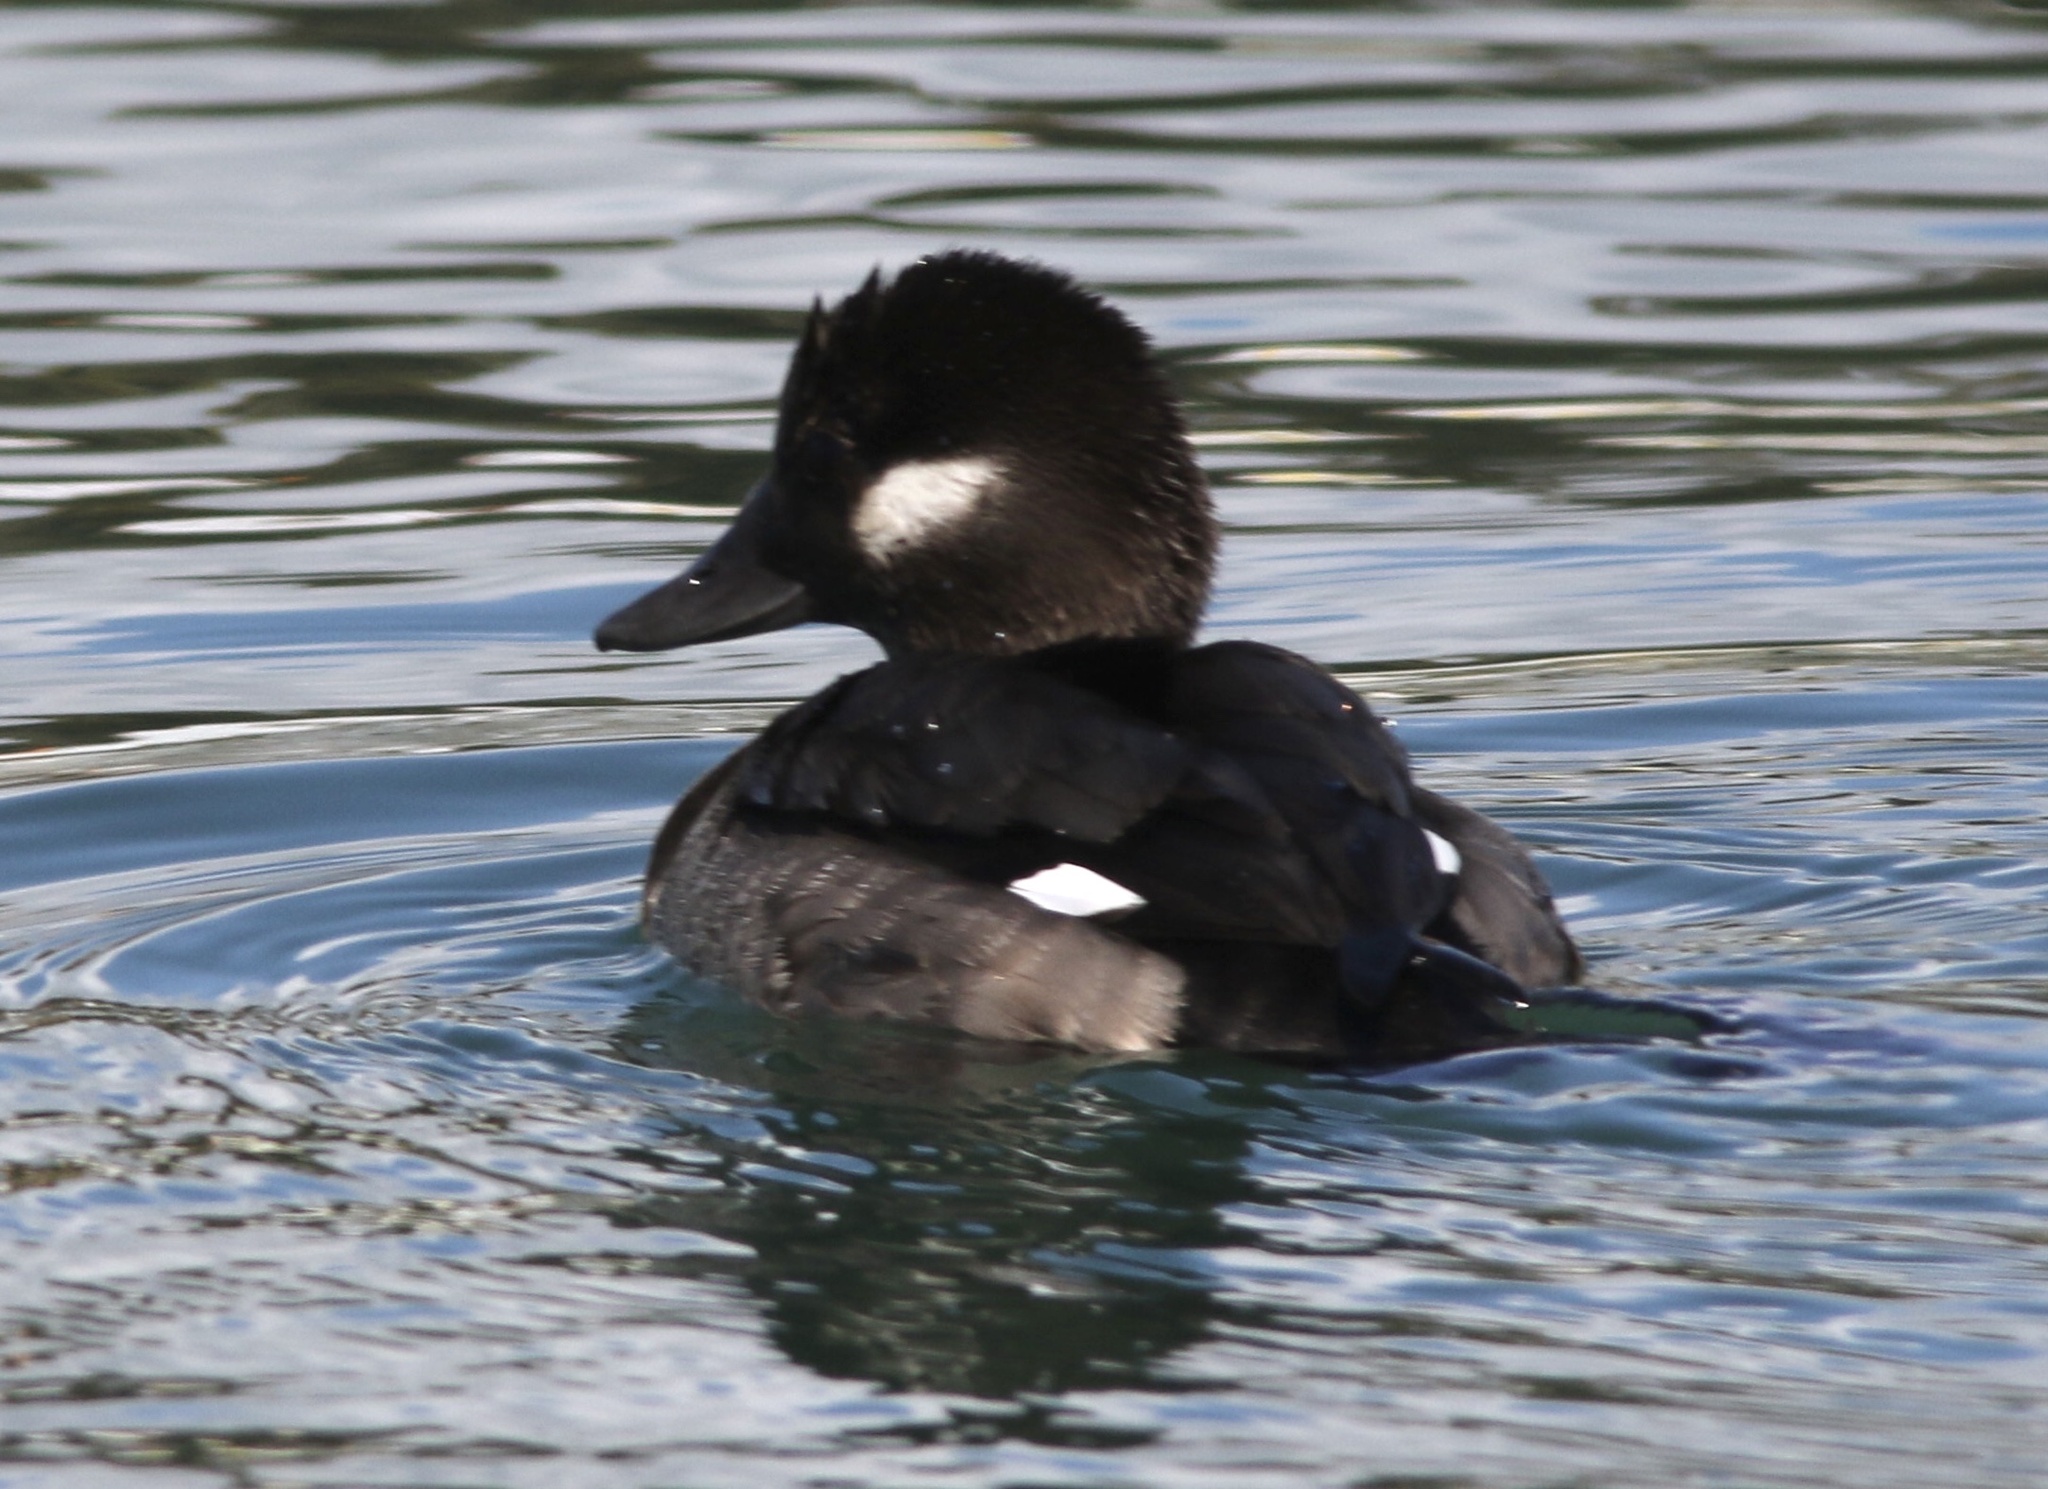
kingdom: Animalia
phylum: Chordata
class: Aves
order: Anseriformes
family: Anatidae
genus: Bucephala
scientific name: Bucephala albeola
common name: Bufflehead
